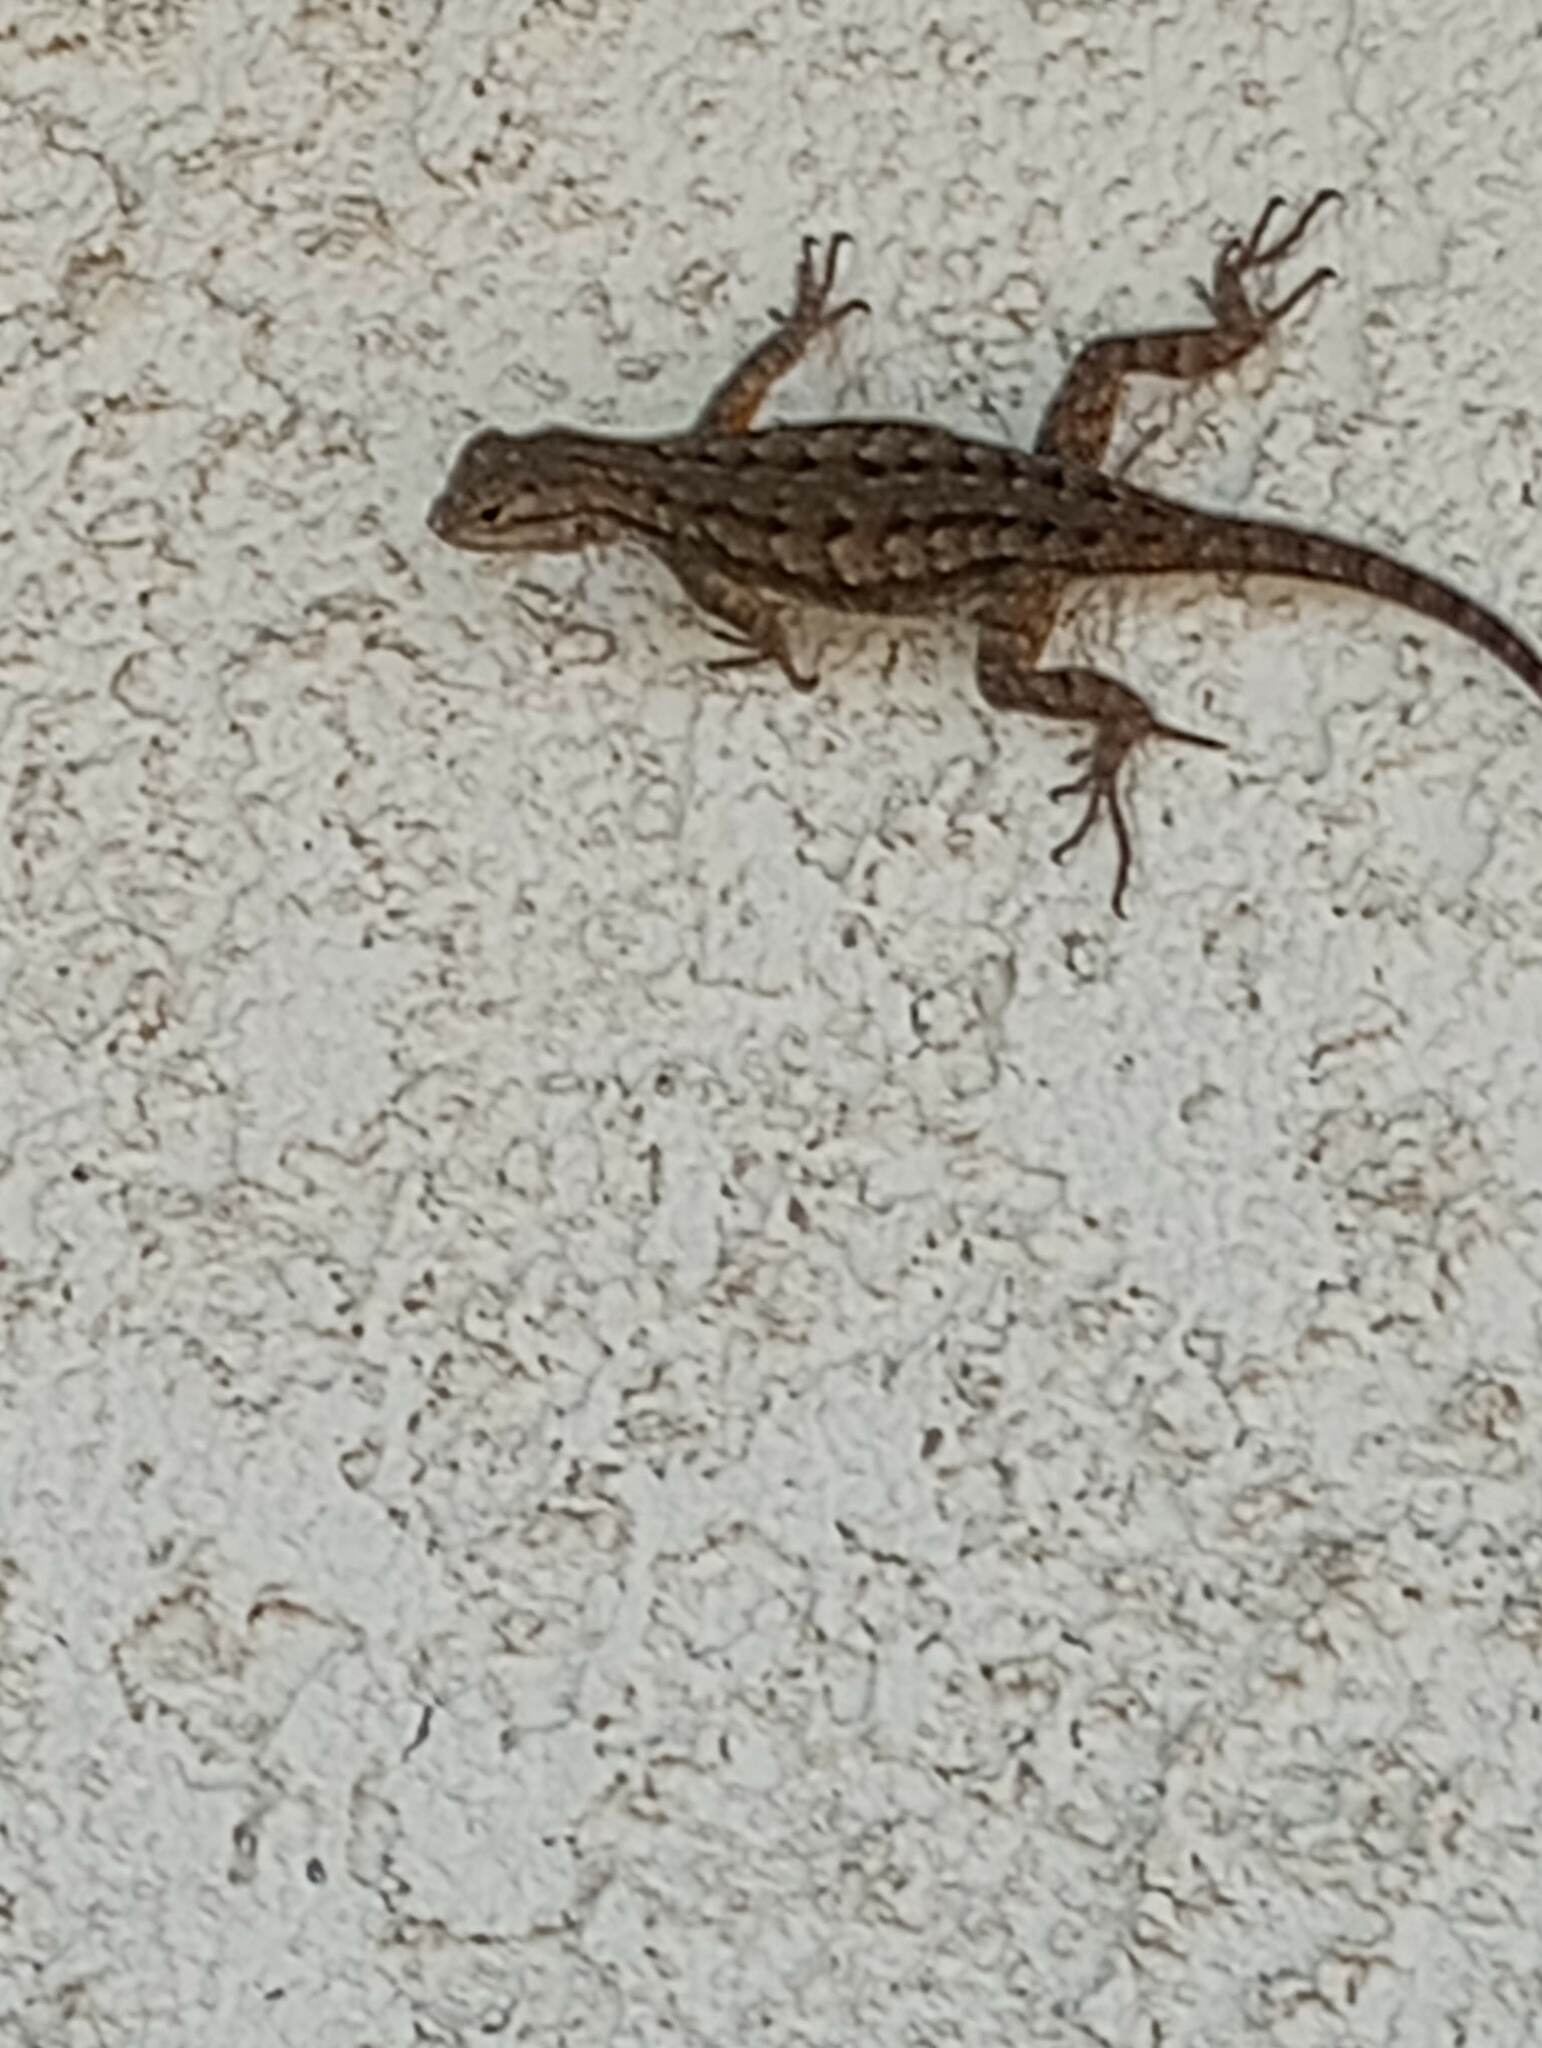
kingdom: Animalia
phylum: Chordata
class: Squamata
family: Phrynosomatidae
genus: Sceloporus
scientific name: Sceloporus occidentalis
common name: Western fence lizard
